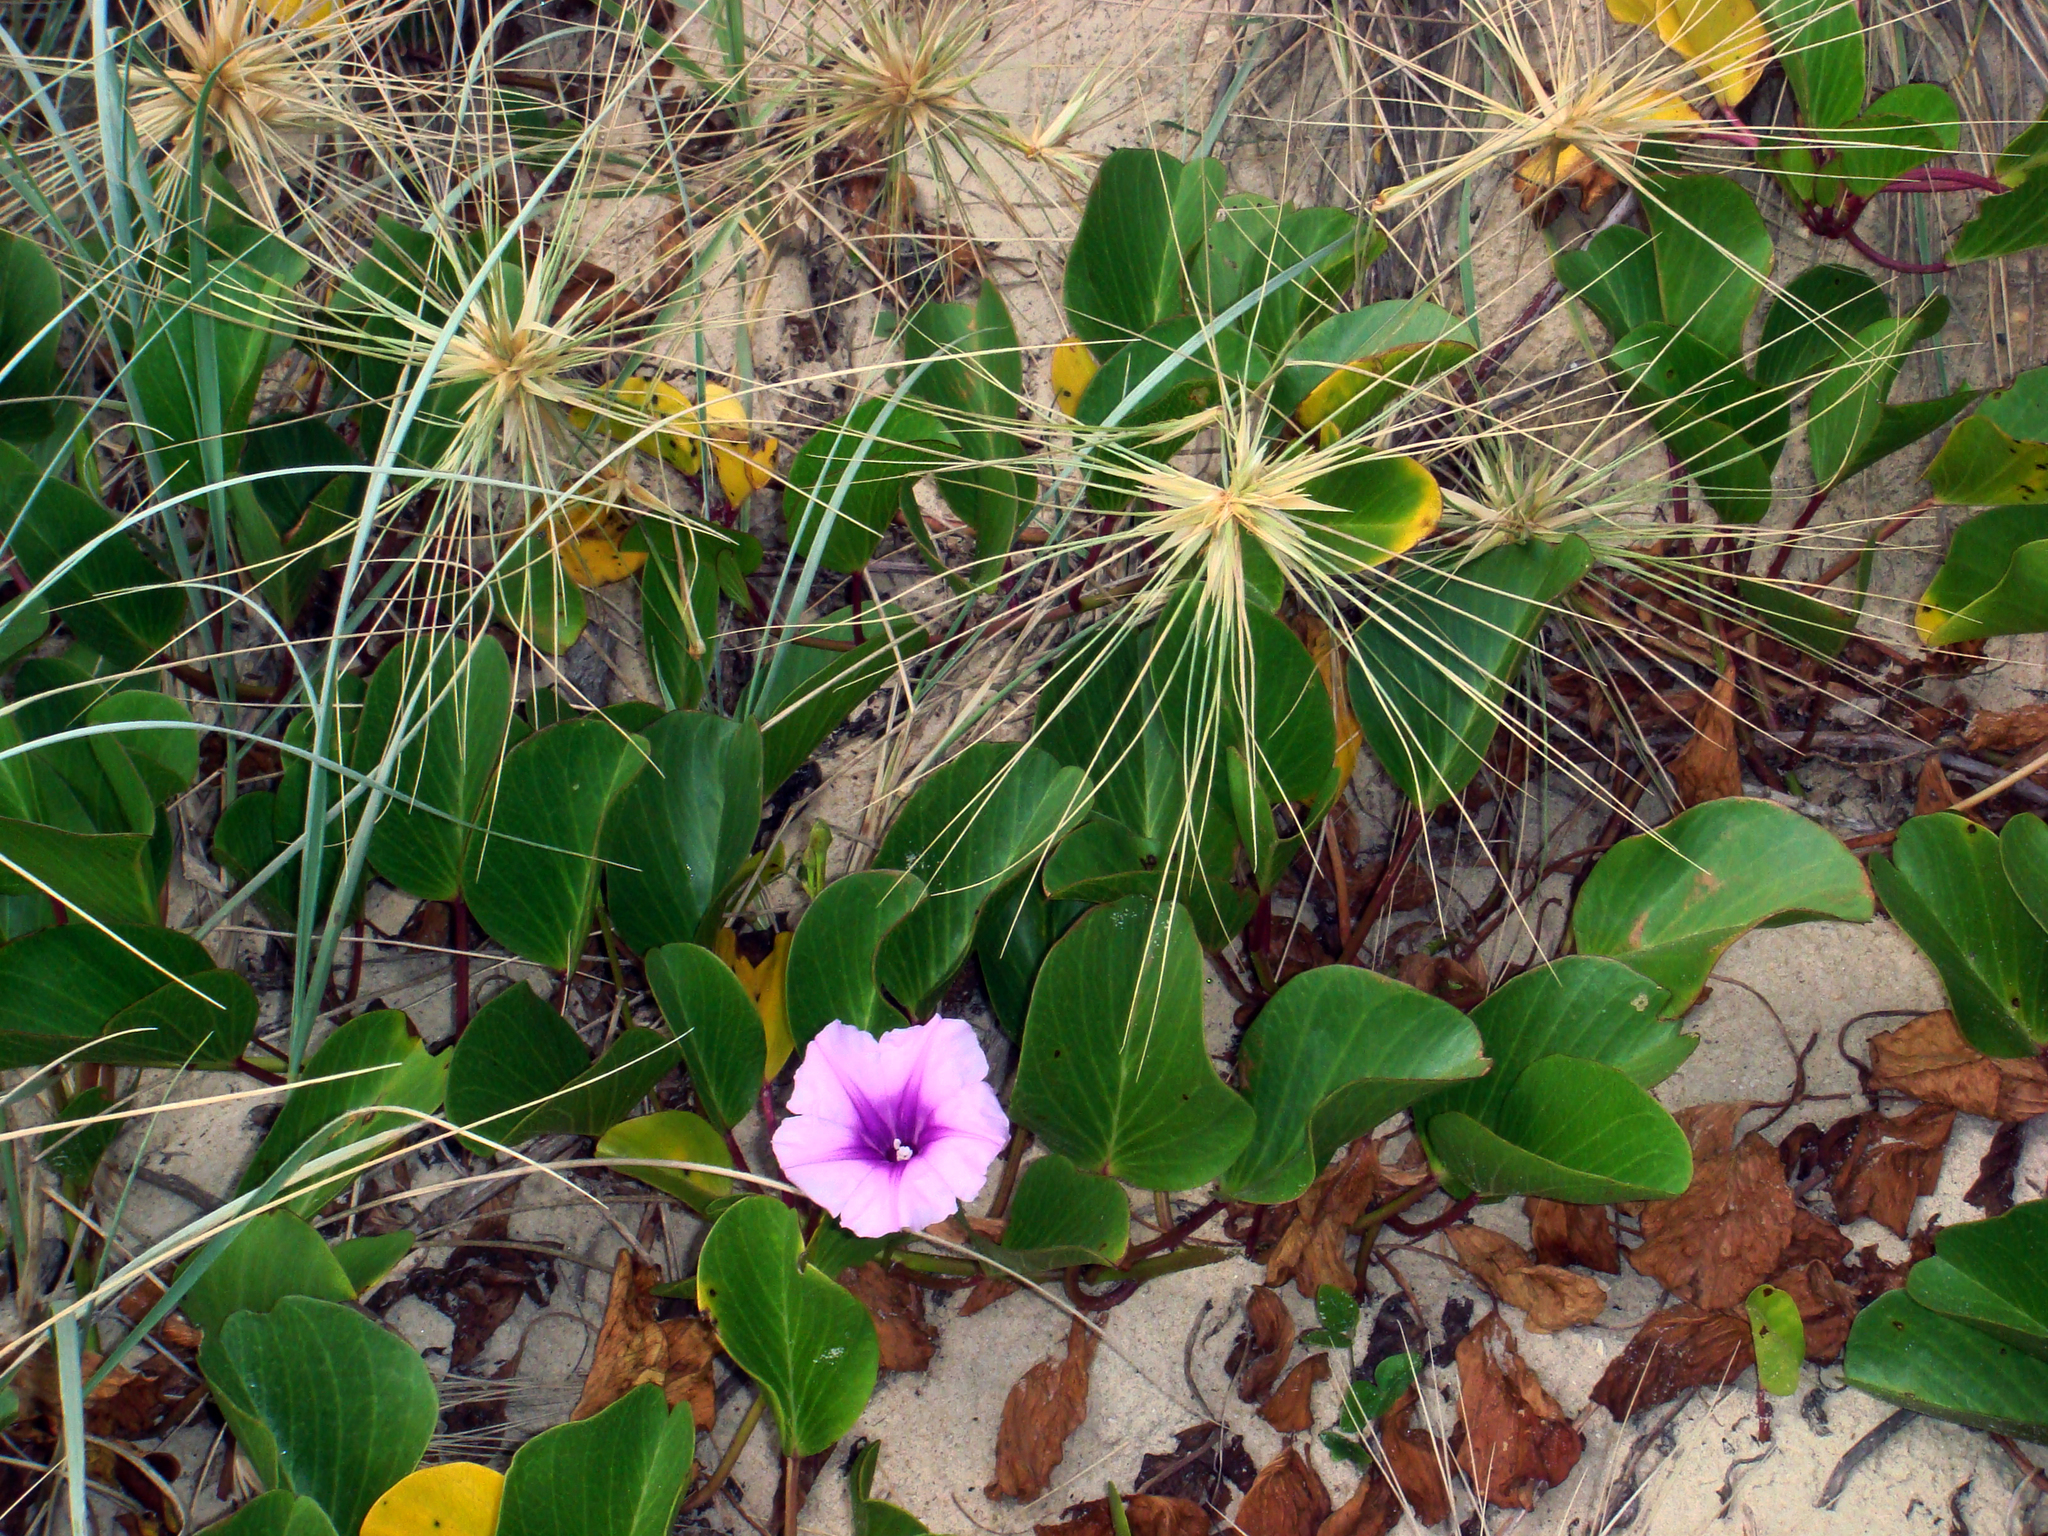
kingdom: Plantae
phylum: Tracheophyta
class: Magnoliopsida
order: Solanales
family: Convolvulaceae
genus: Ipomoea
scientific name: Ipomoea pes-caprae
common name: Beach morning glory
